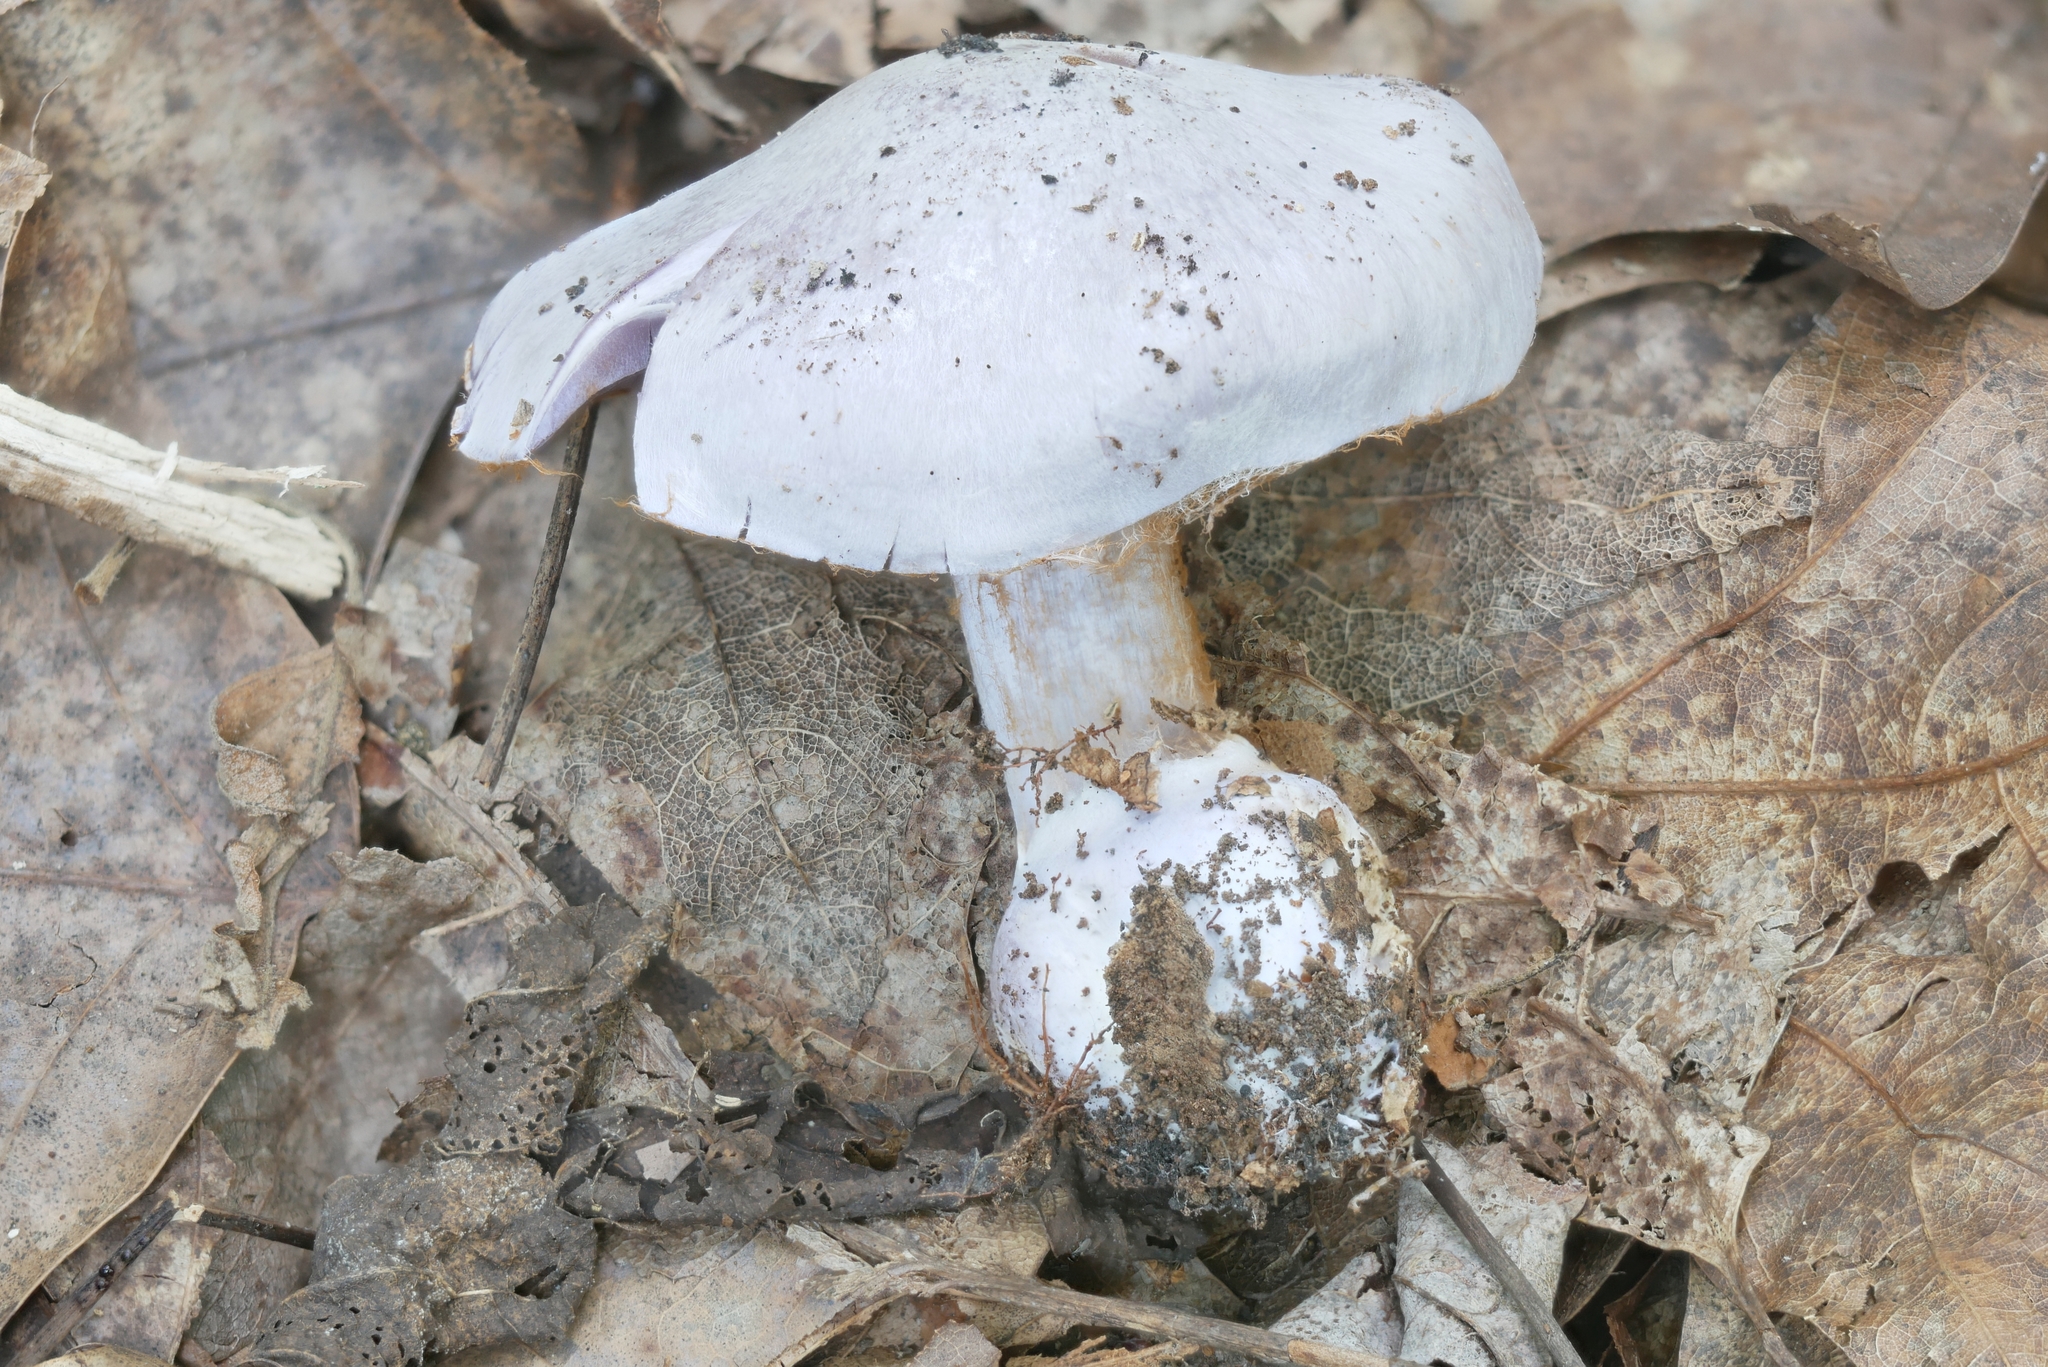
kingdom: Fungi
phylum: Basidiomycota
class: Agaricomycetes
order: Agaricales
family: Cortinariaceae
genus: Cortinarius
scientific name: Cortinarius alboviolaceus
